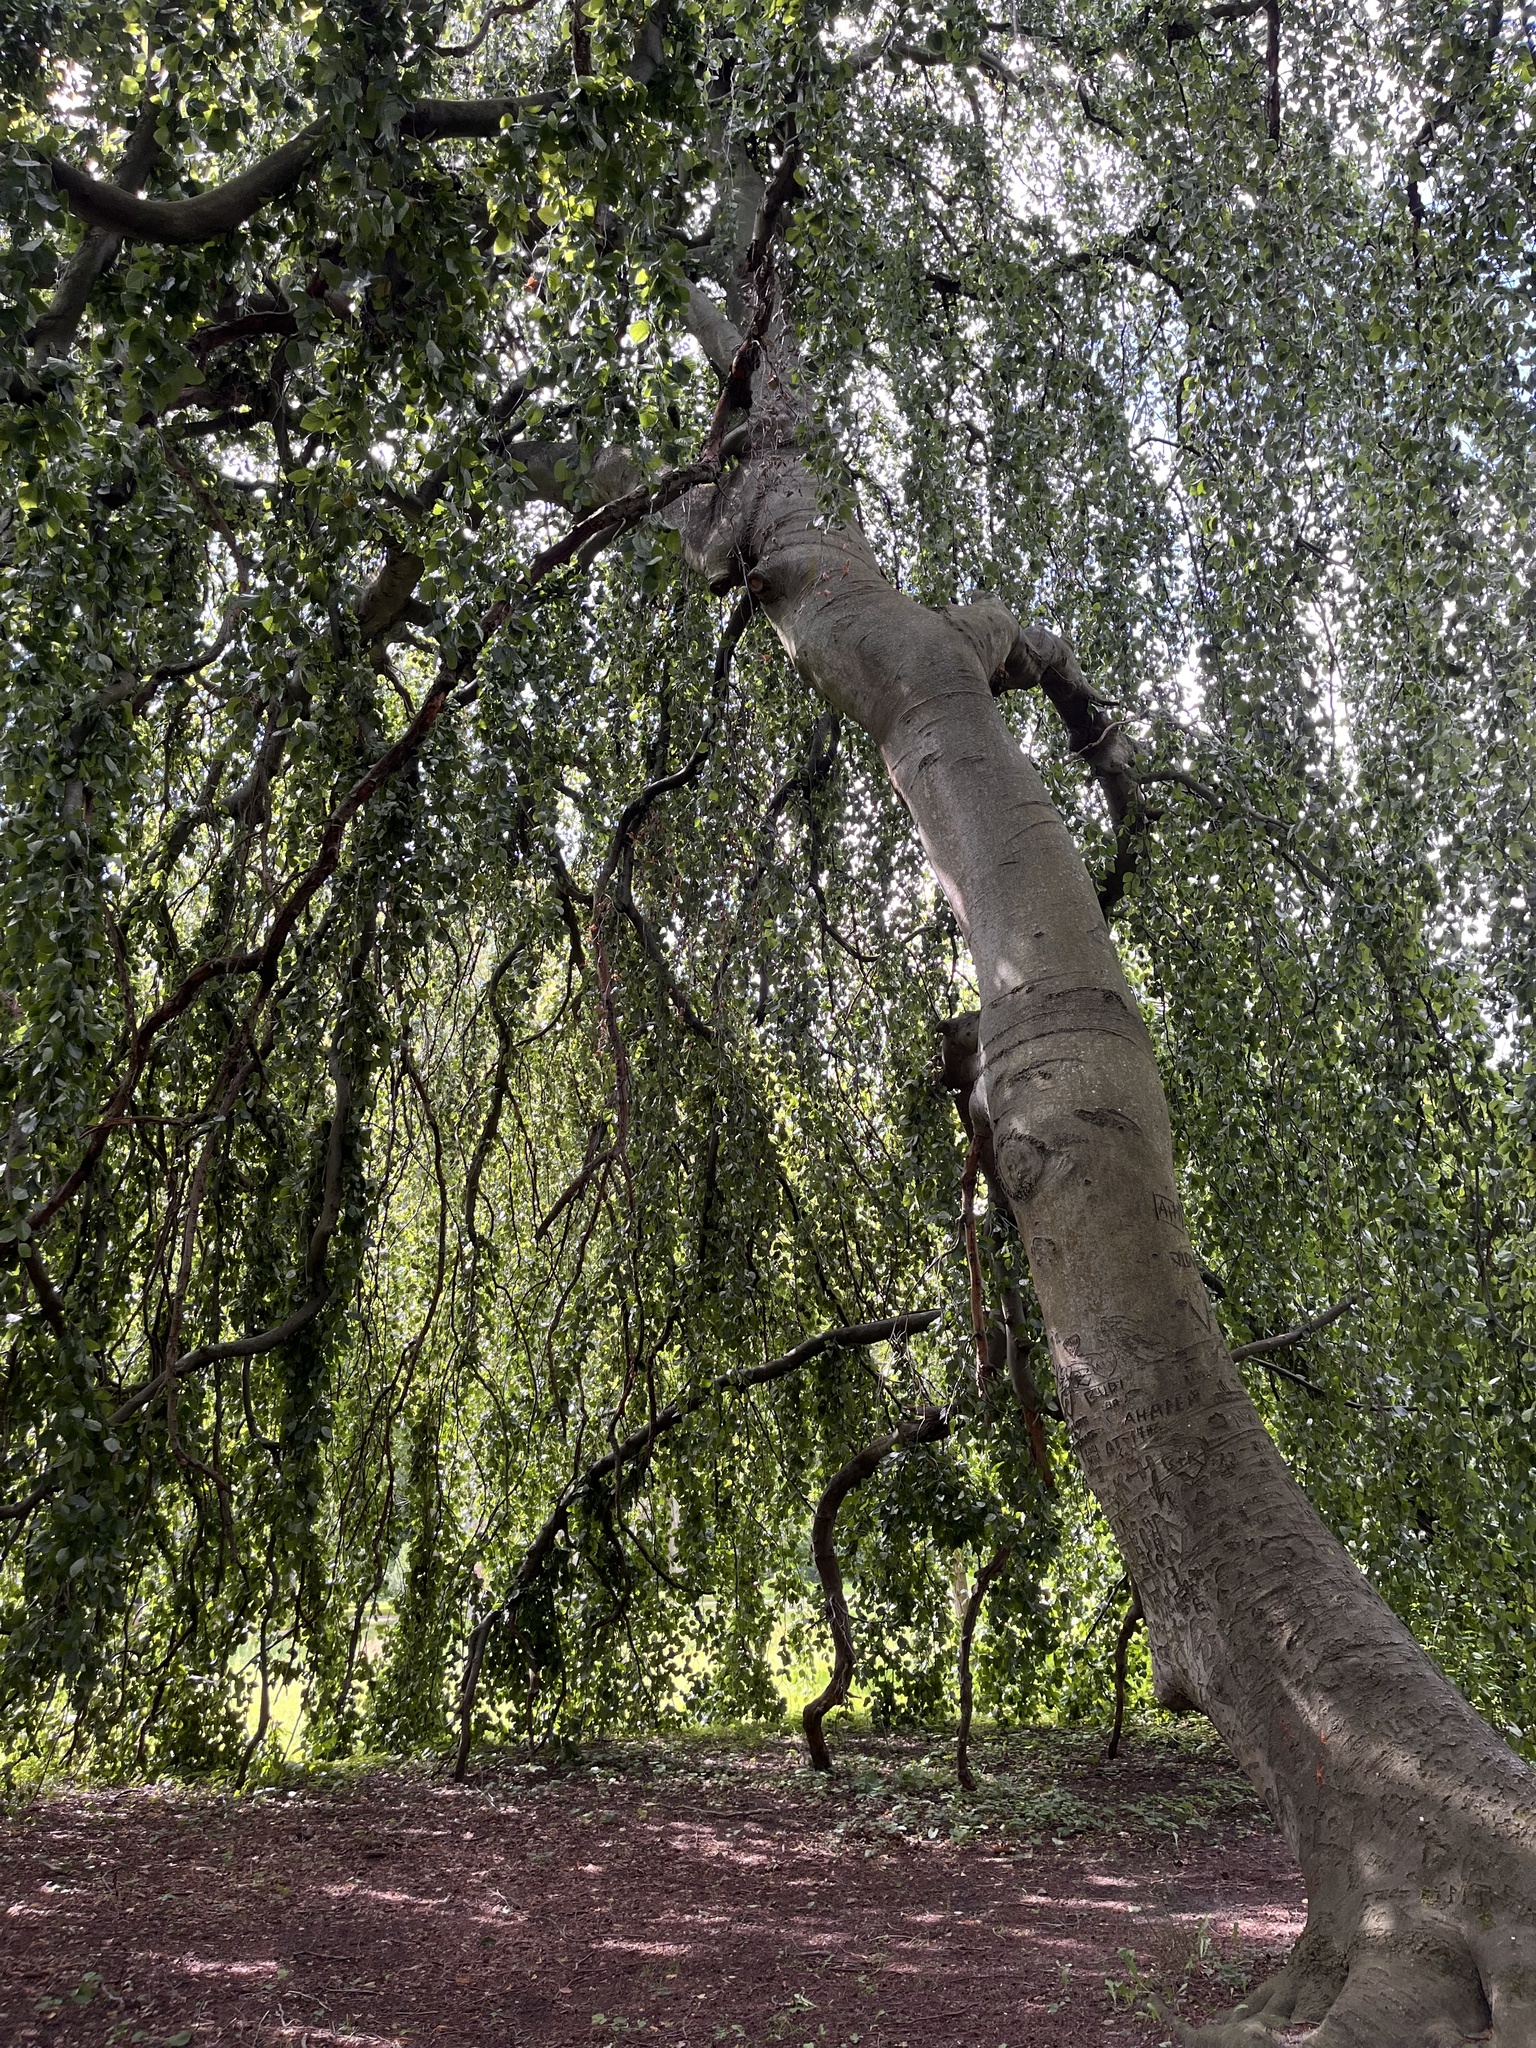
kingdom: Plantae
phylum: Tracheophyta
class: Magnoliopsida
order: Fagales
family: Fagaceae
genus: Fagus
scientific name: Fagus sylvatica
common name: Beech
